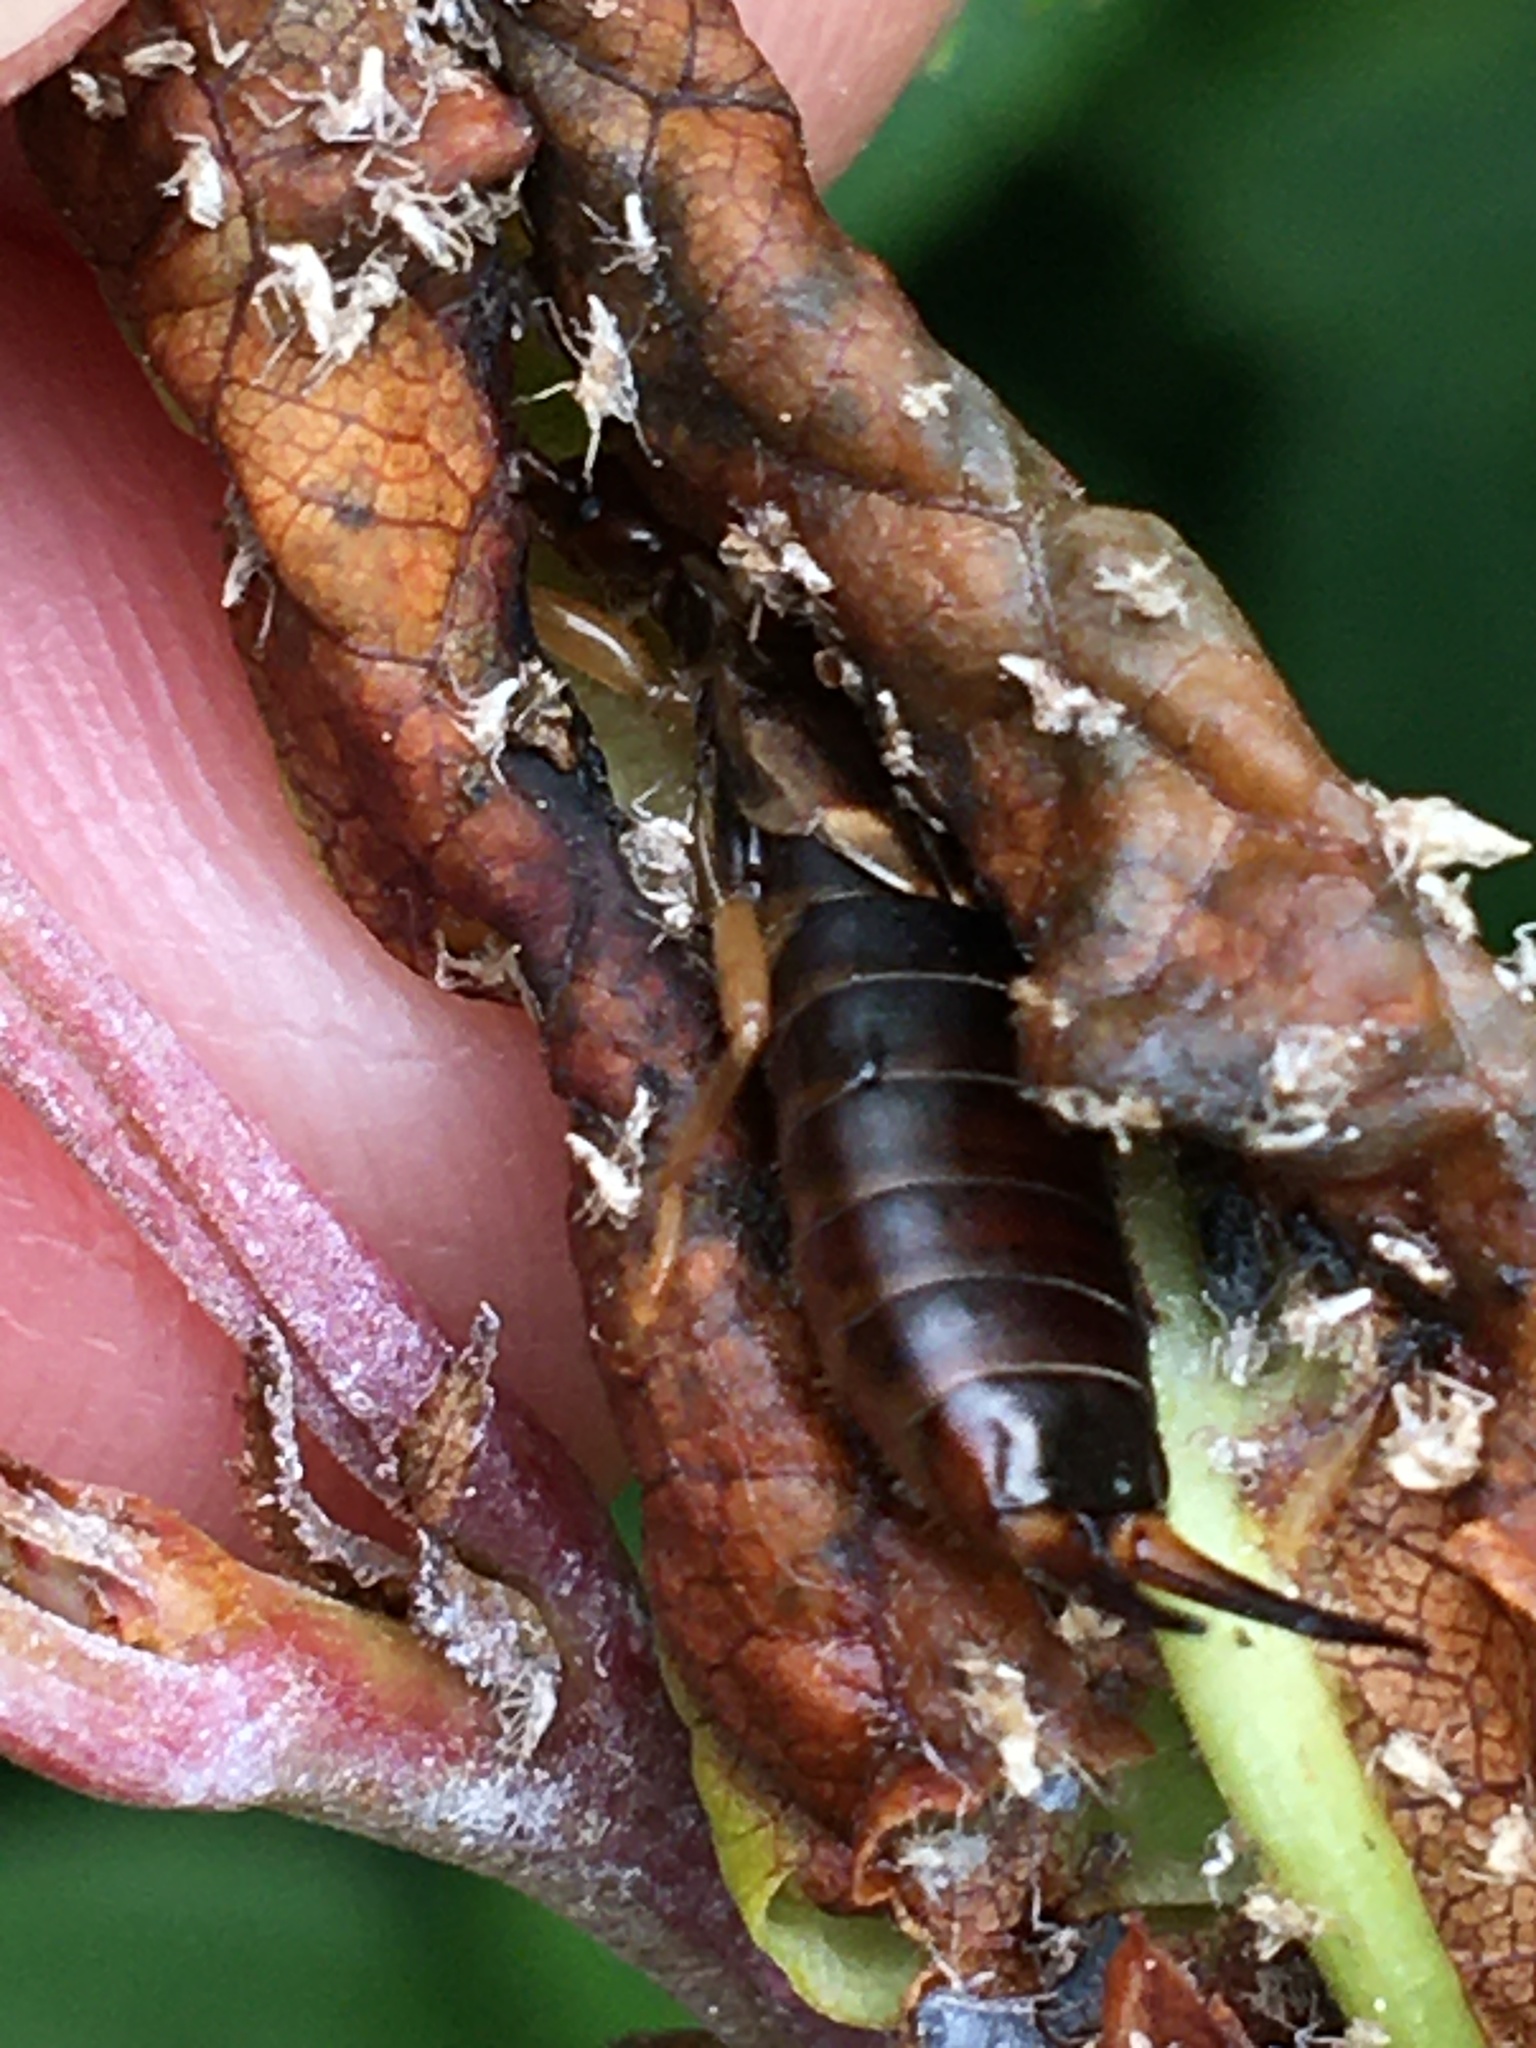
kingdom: Animalia
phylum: Arthropoda
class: Insecta
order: Dermaptera
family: Forficulidae
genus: Forficula
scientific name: Forficula
